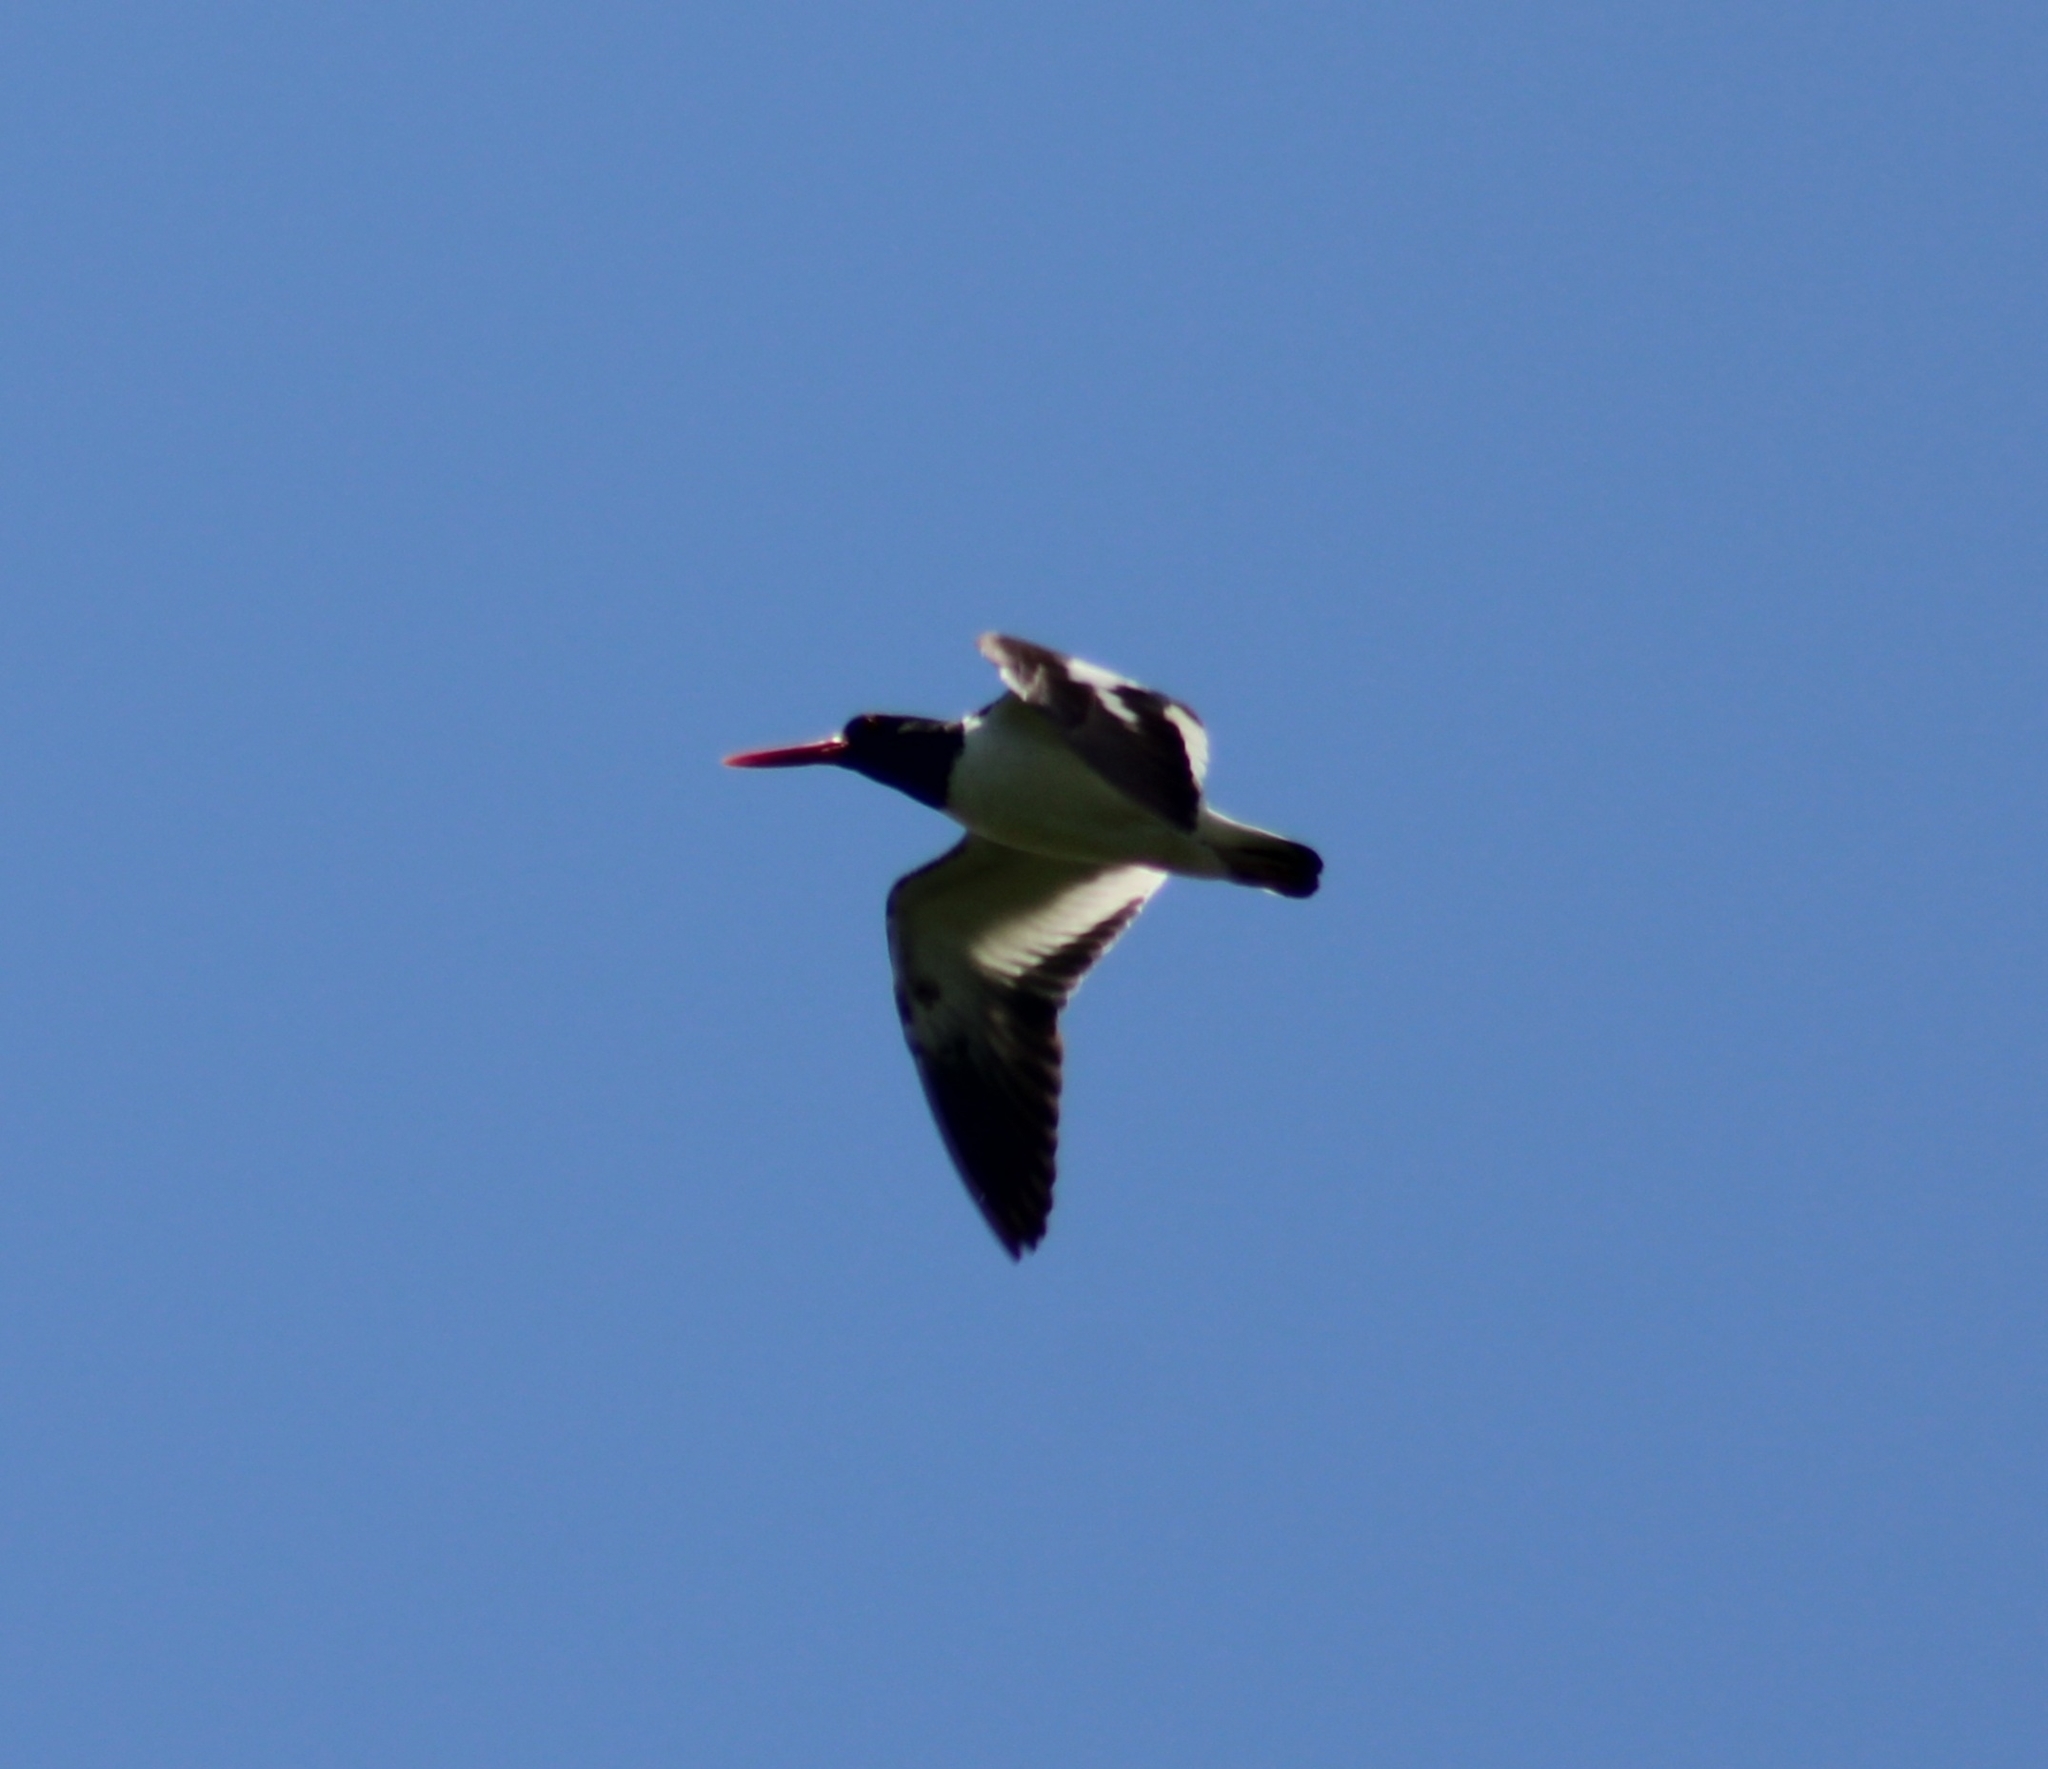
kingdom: Animalia
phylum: Chordata
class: Aves
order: Charadriiformes
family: Haematopodidae
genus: Haematopus
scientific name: Haematopus palliatus
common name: American oystercatcher
